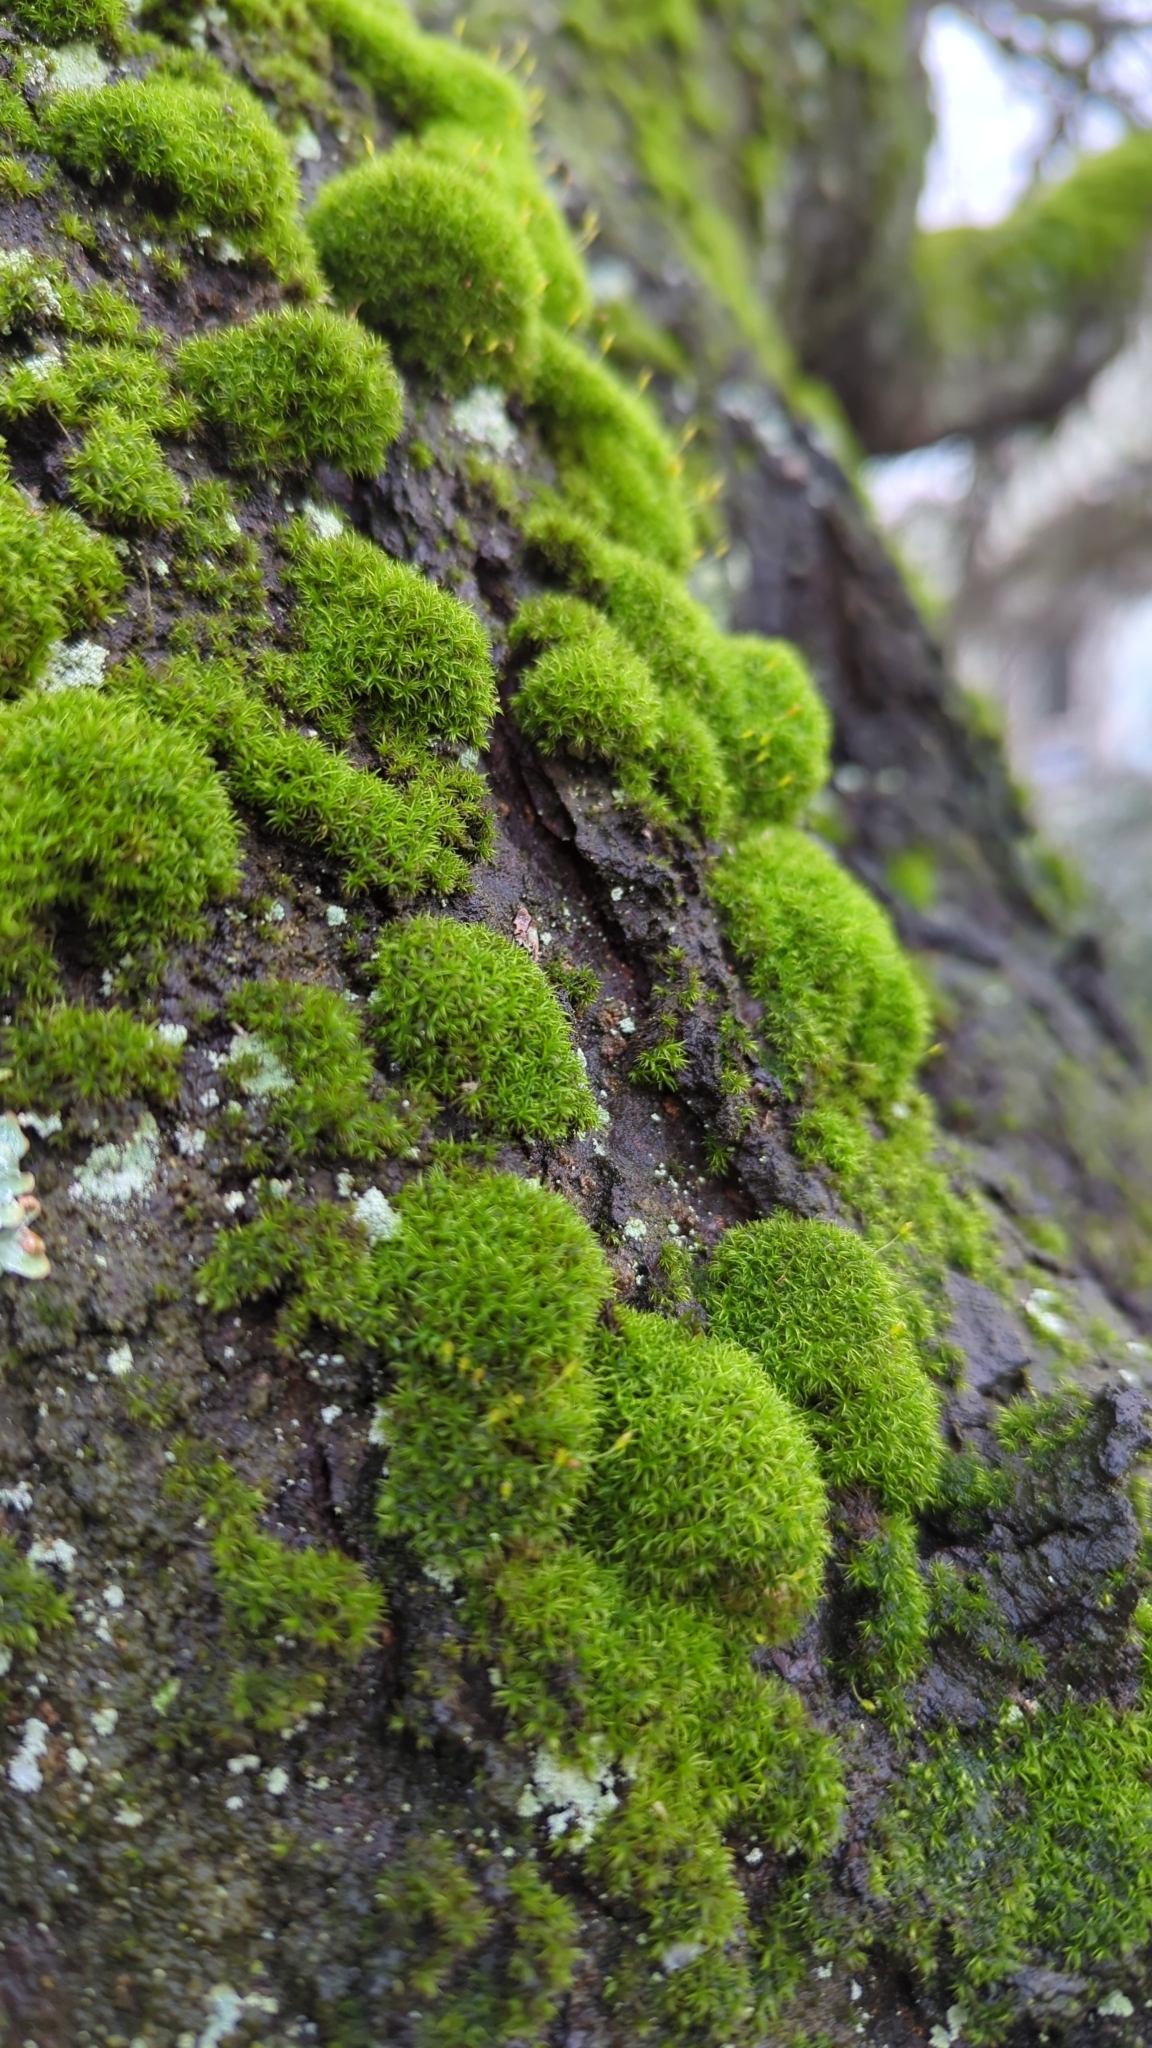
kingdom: Plantae
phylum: Bryophyta
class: Bryopsida
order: Dicranales
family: Rhabdoweisiaceae
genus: Dicranoweisia
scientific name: Dicranoweisia cirrata
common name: Common pincushion
